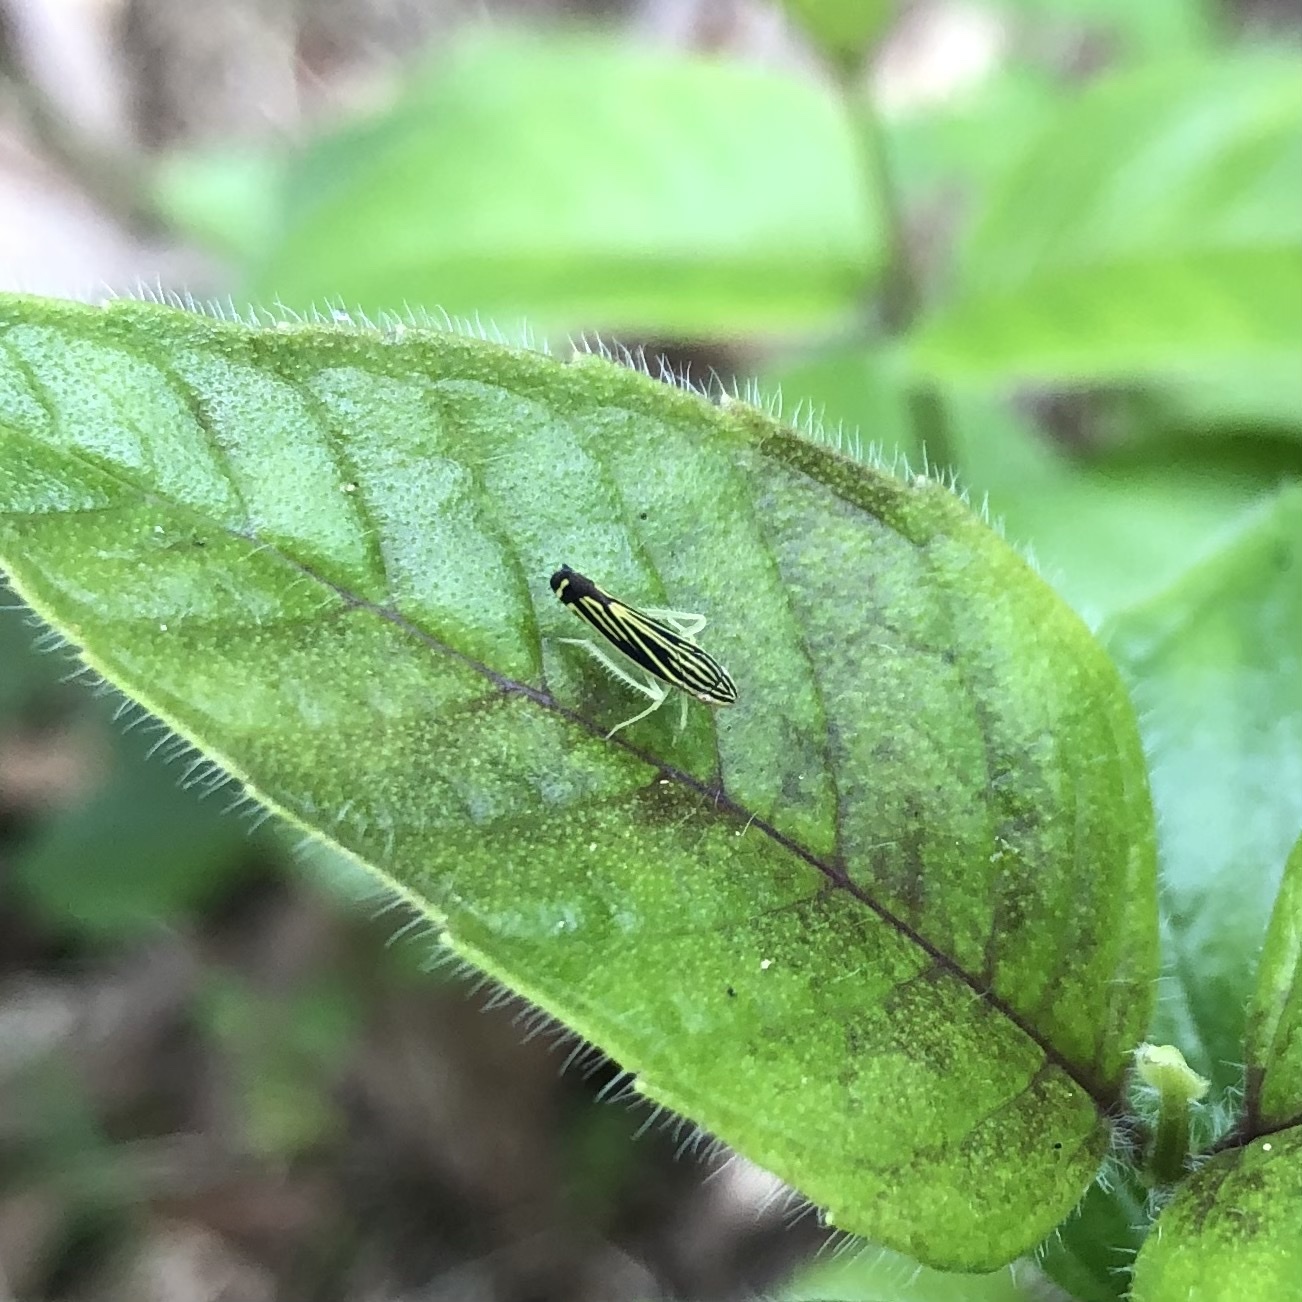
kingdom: Animalia
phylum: Arthropoda
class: Insecta
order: Hemiptera
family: Cicadellidae
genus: Sibovia
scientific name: Sibovia occatoria
